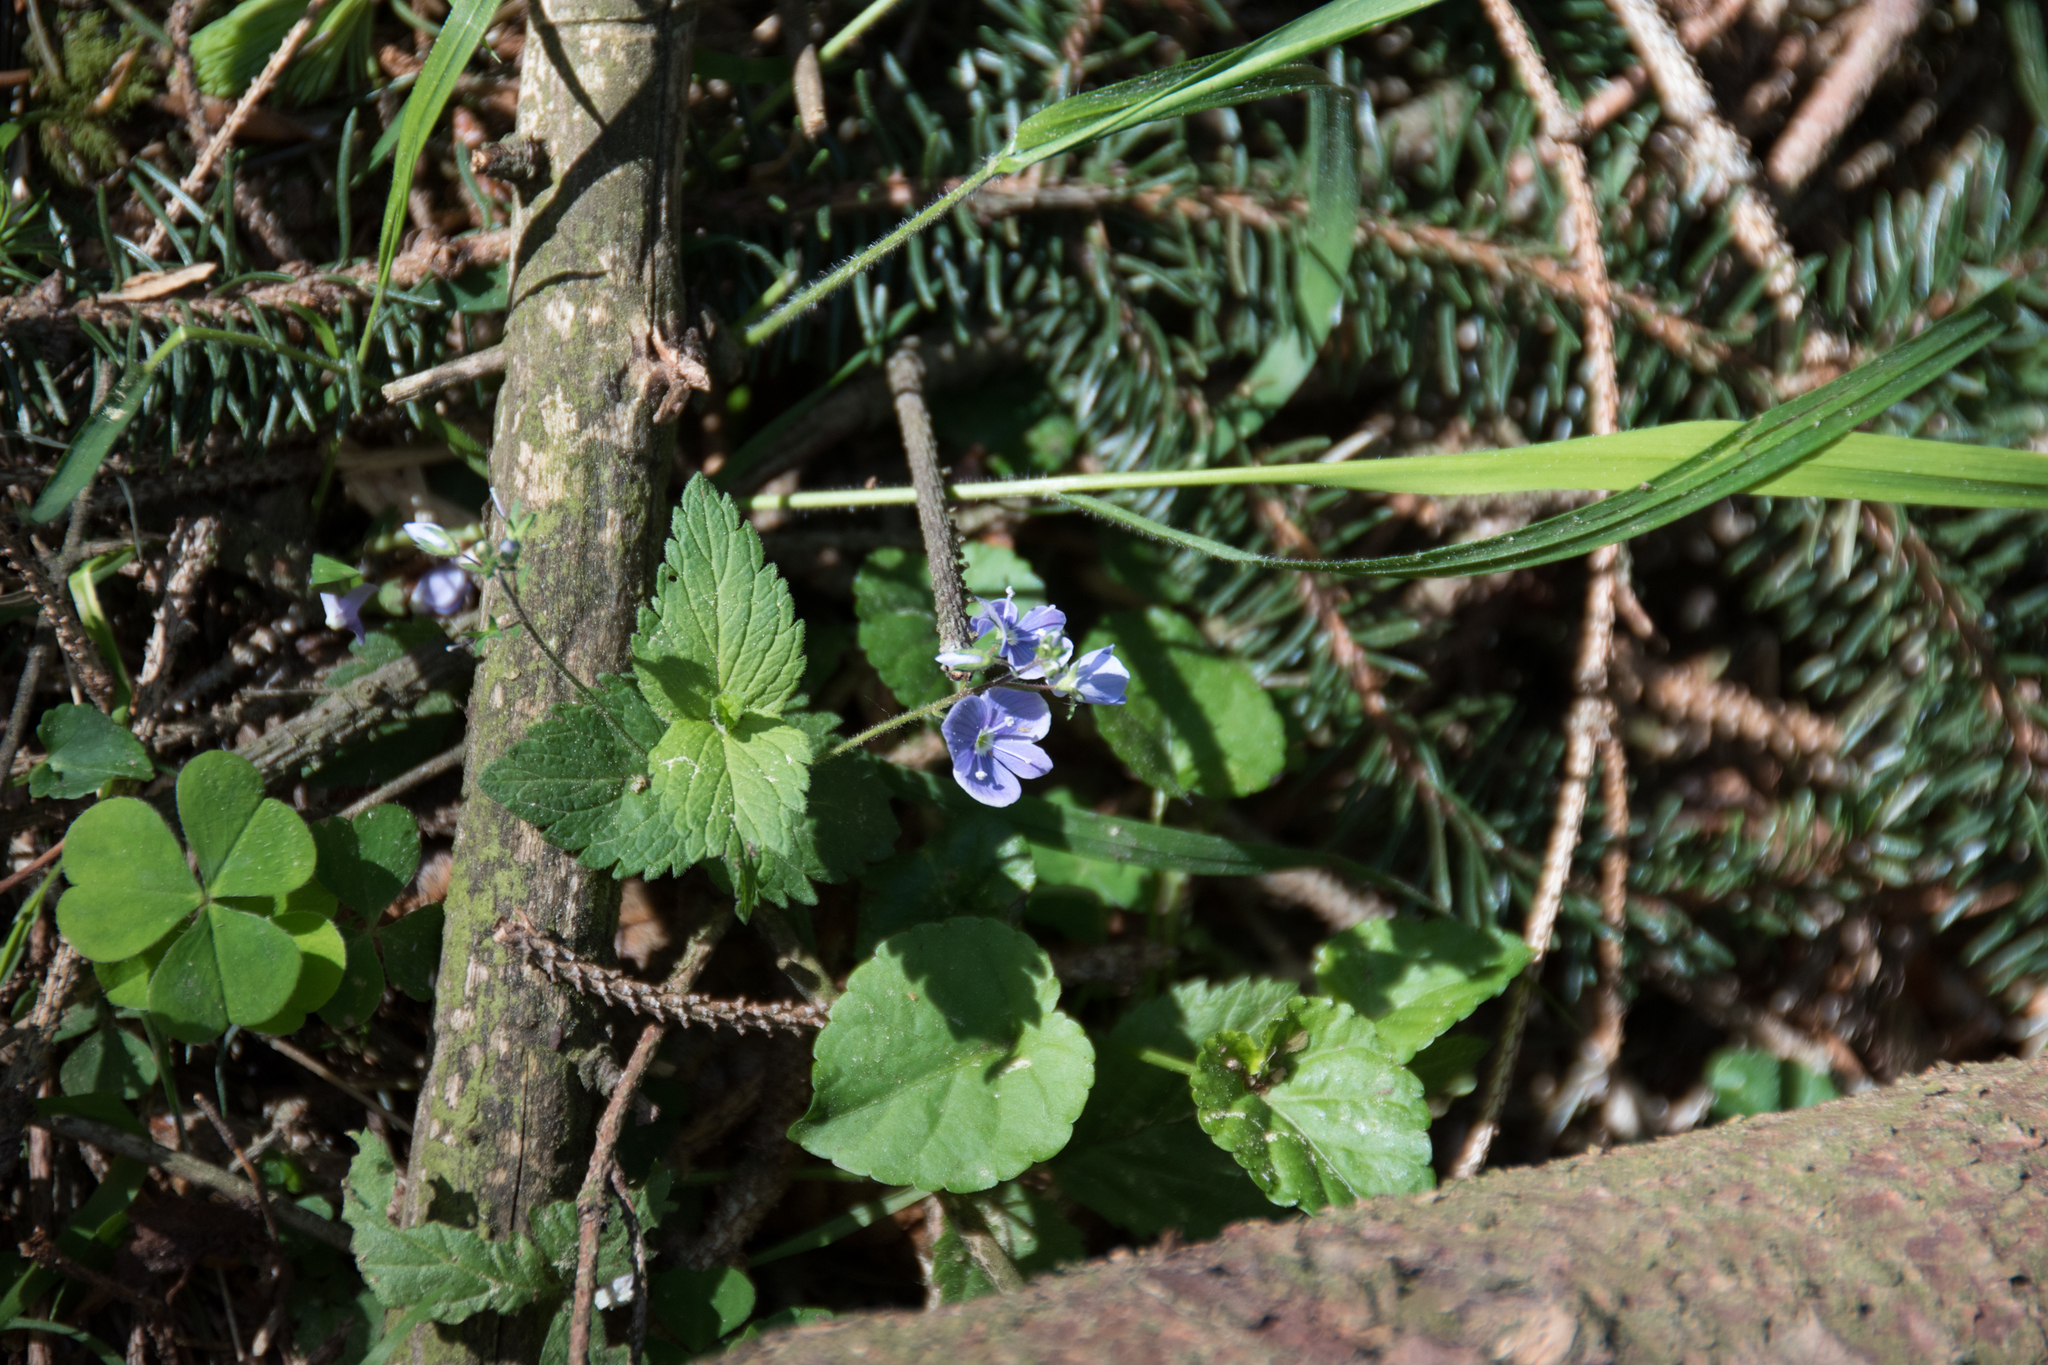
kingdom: Plantae
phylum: Tracheophyta
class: Magnoliopsida
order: Lamiales
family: Plantaginaceae
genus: Veronica
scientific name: Veronica chamaedrys
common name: Germander speedwell
